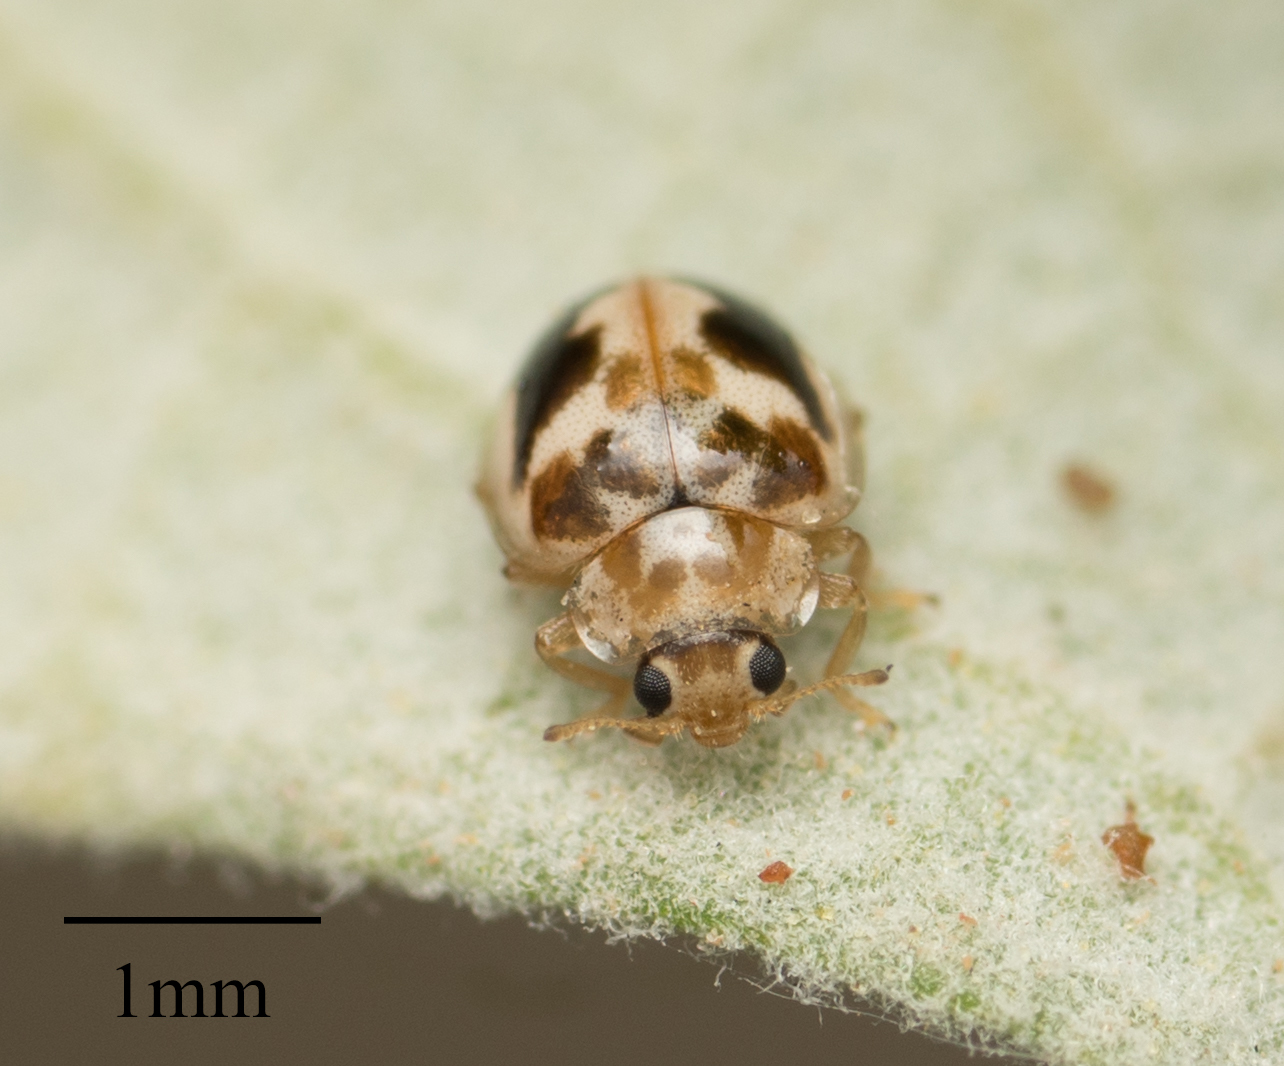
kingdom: Animalia
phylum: Arthropoda
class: Insecta
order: Coleoptera
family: Coccinellidae
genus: Psyllobora
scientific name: Psyllobora renifer
